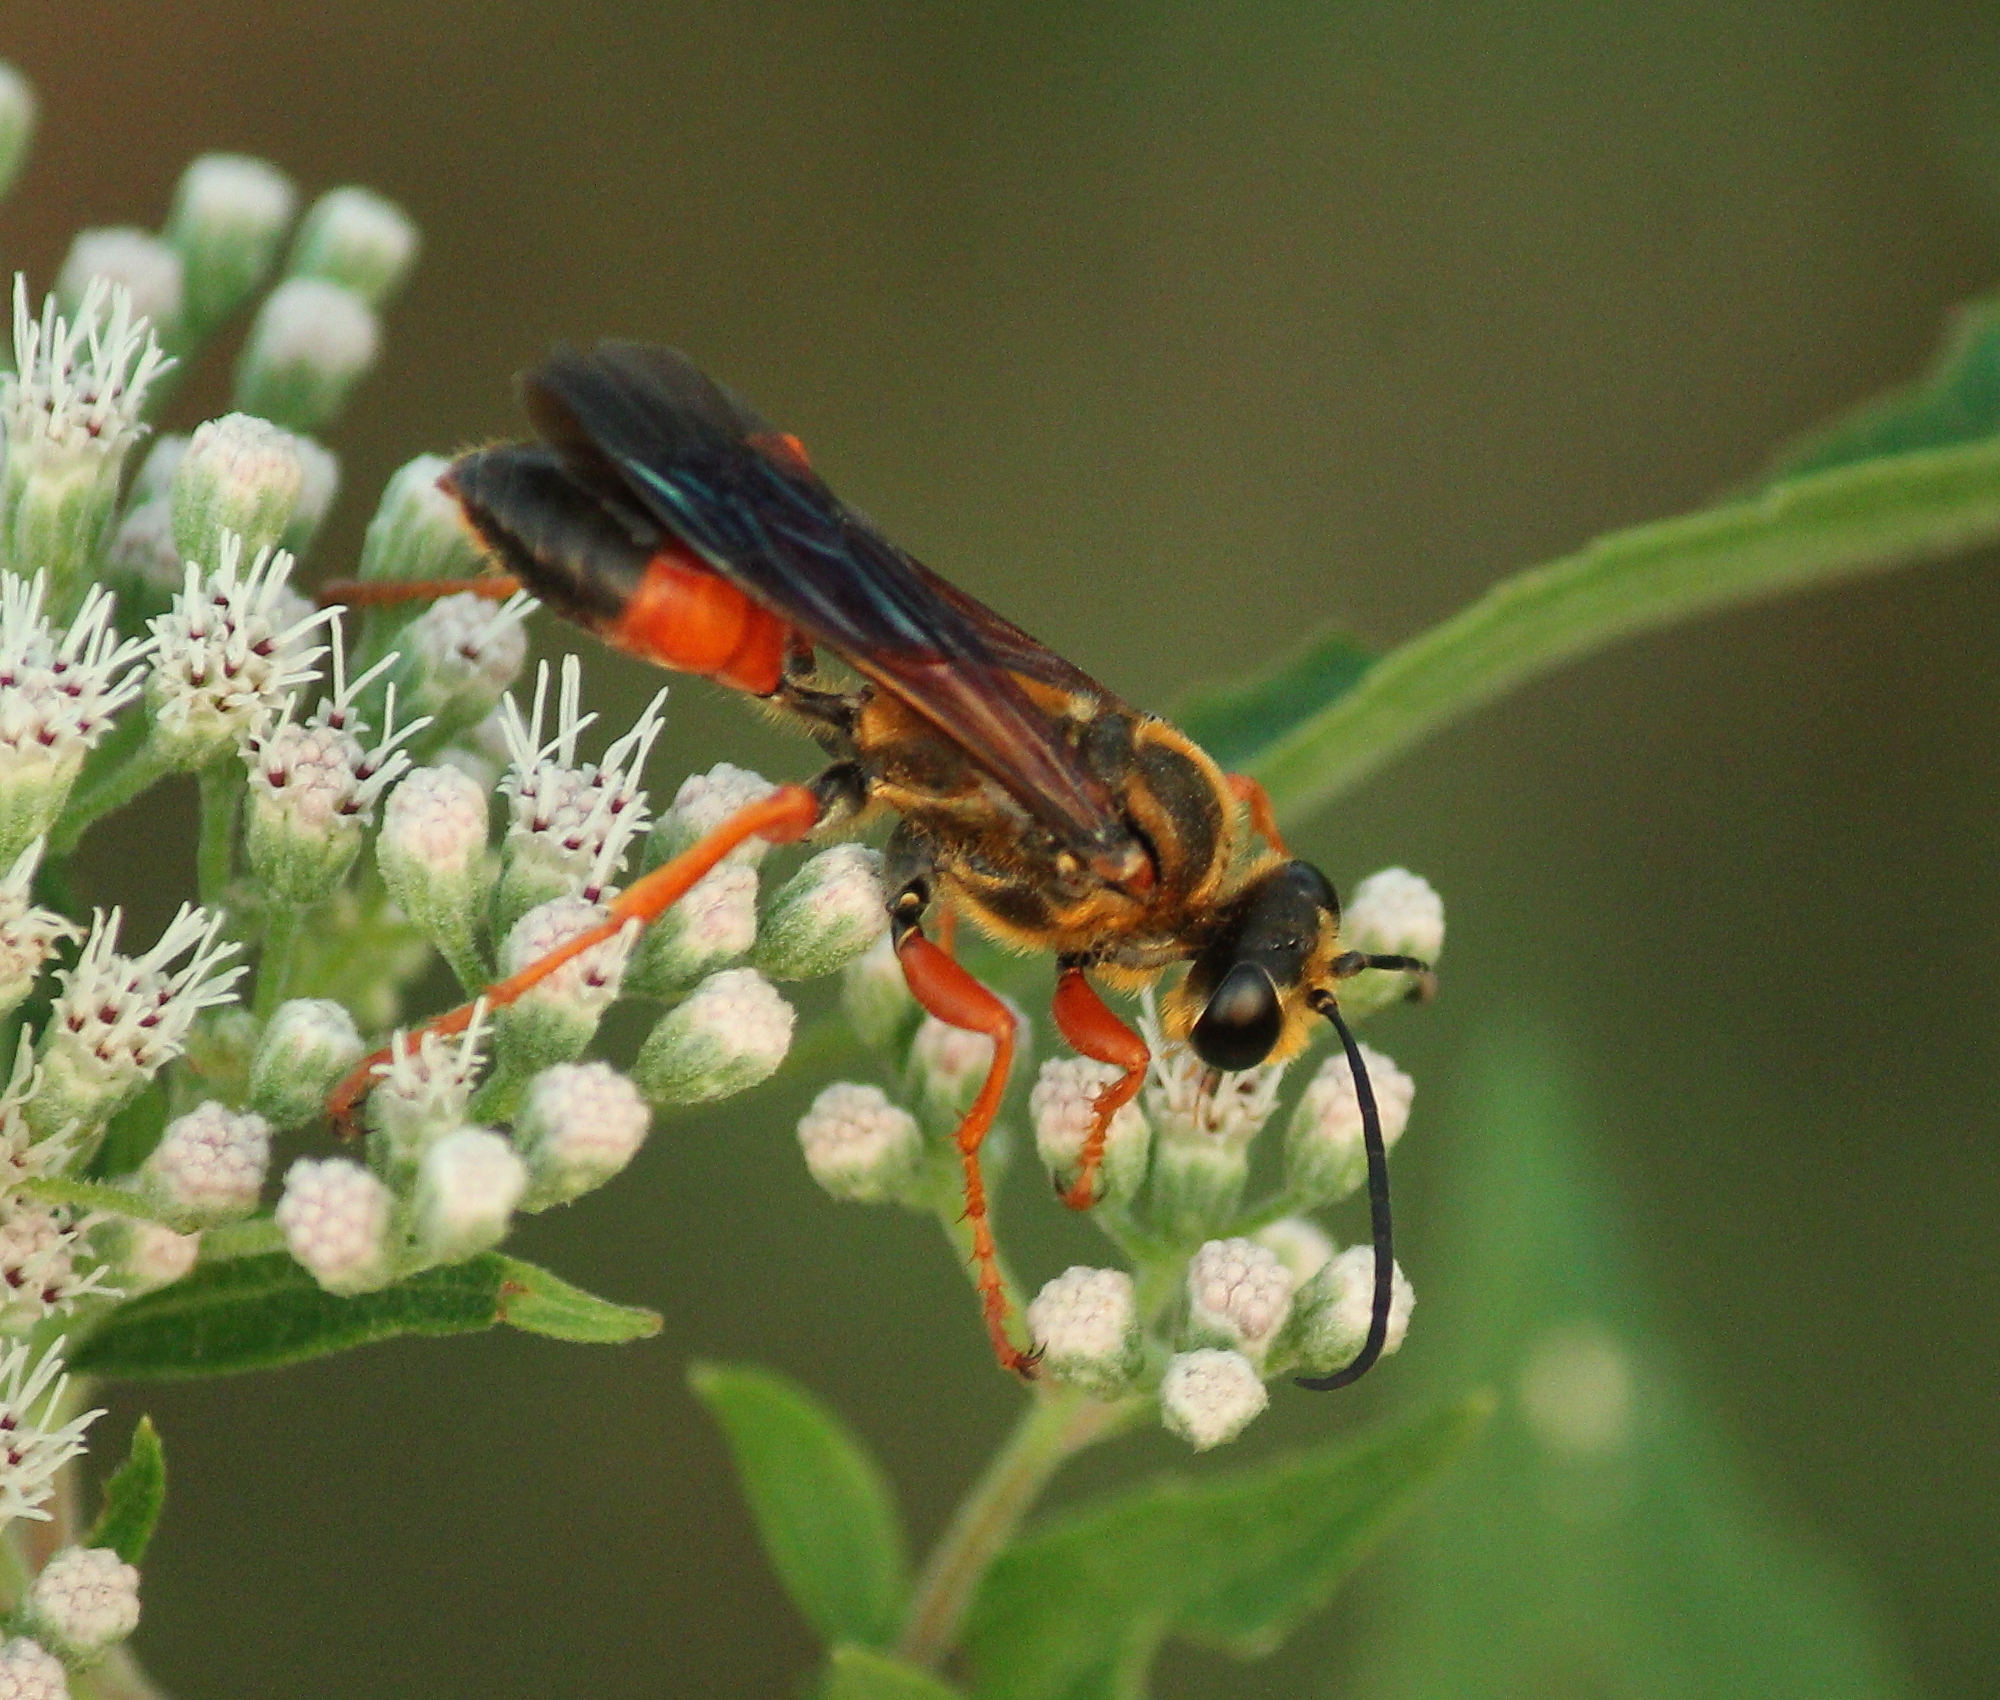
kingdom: Animalia
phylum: Arthropoda
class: Insecta
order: Hymenoptera
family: Sphecidae
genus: Sphex
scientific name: Sphex ichneumoneus
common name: Great golden digger wasp
